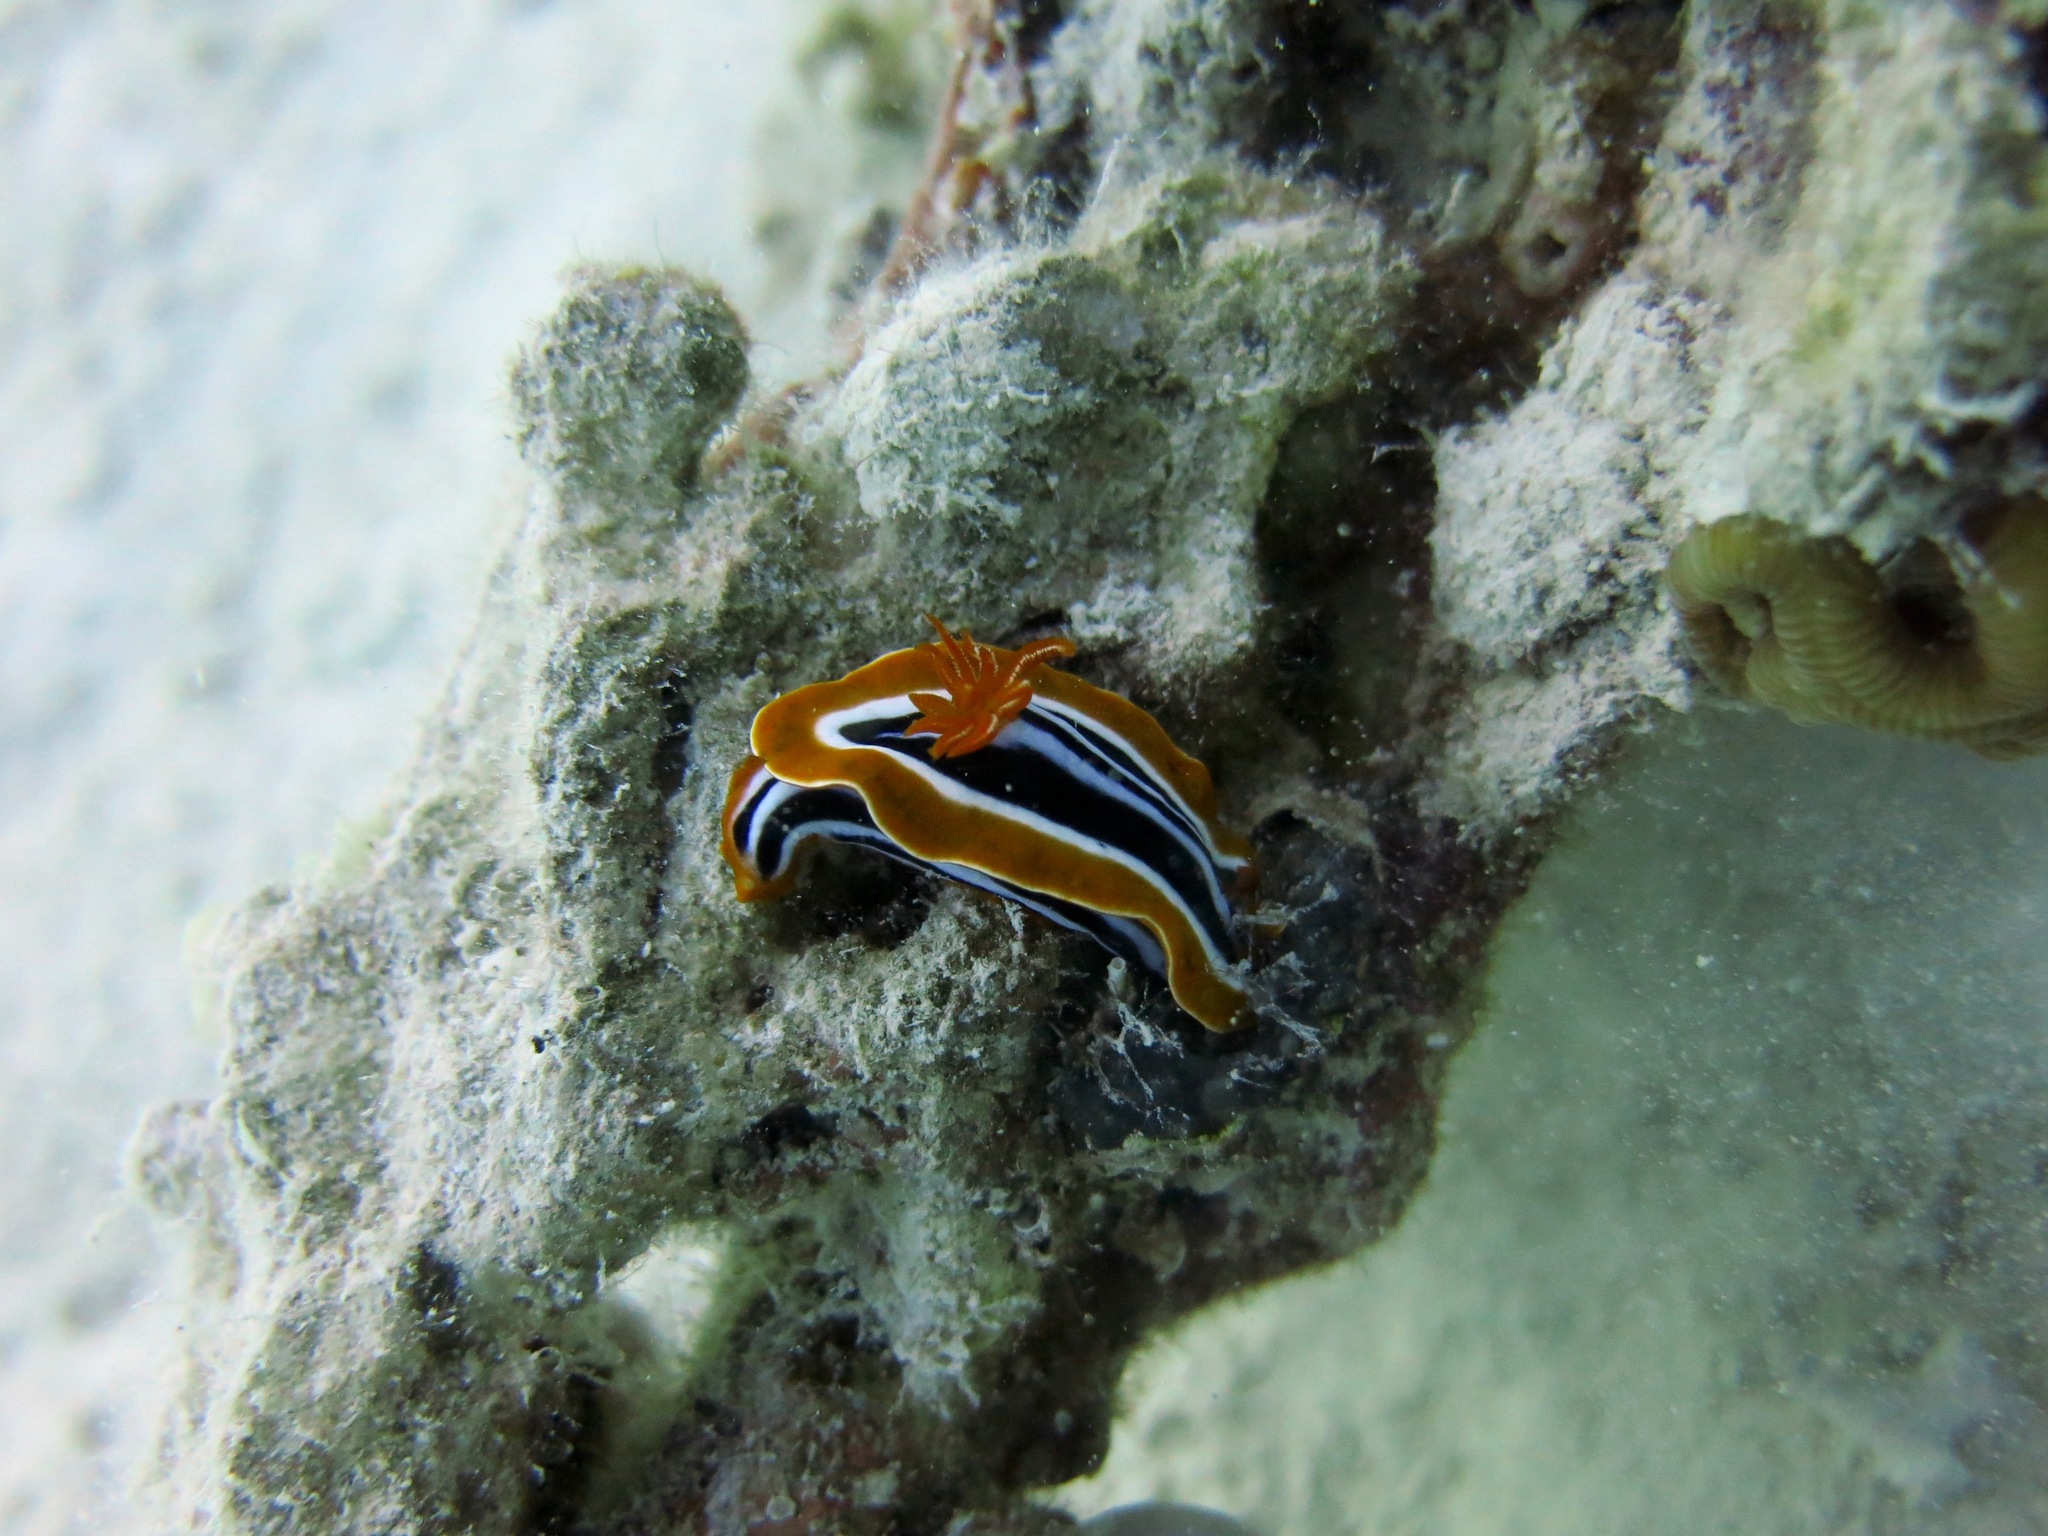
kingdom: Animalia
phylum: Mollusca
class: Gastropoda
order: Nudibranchia
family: Chromodorididae
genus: Chromodoris
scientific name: Chromodoris quadricolor
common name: Striped pyjama nudibranch
